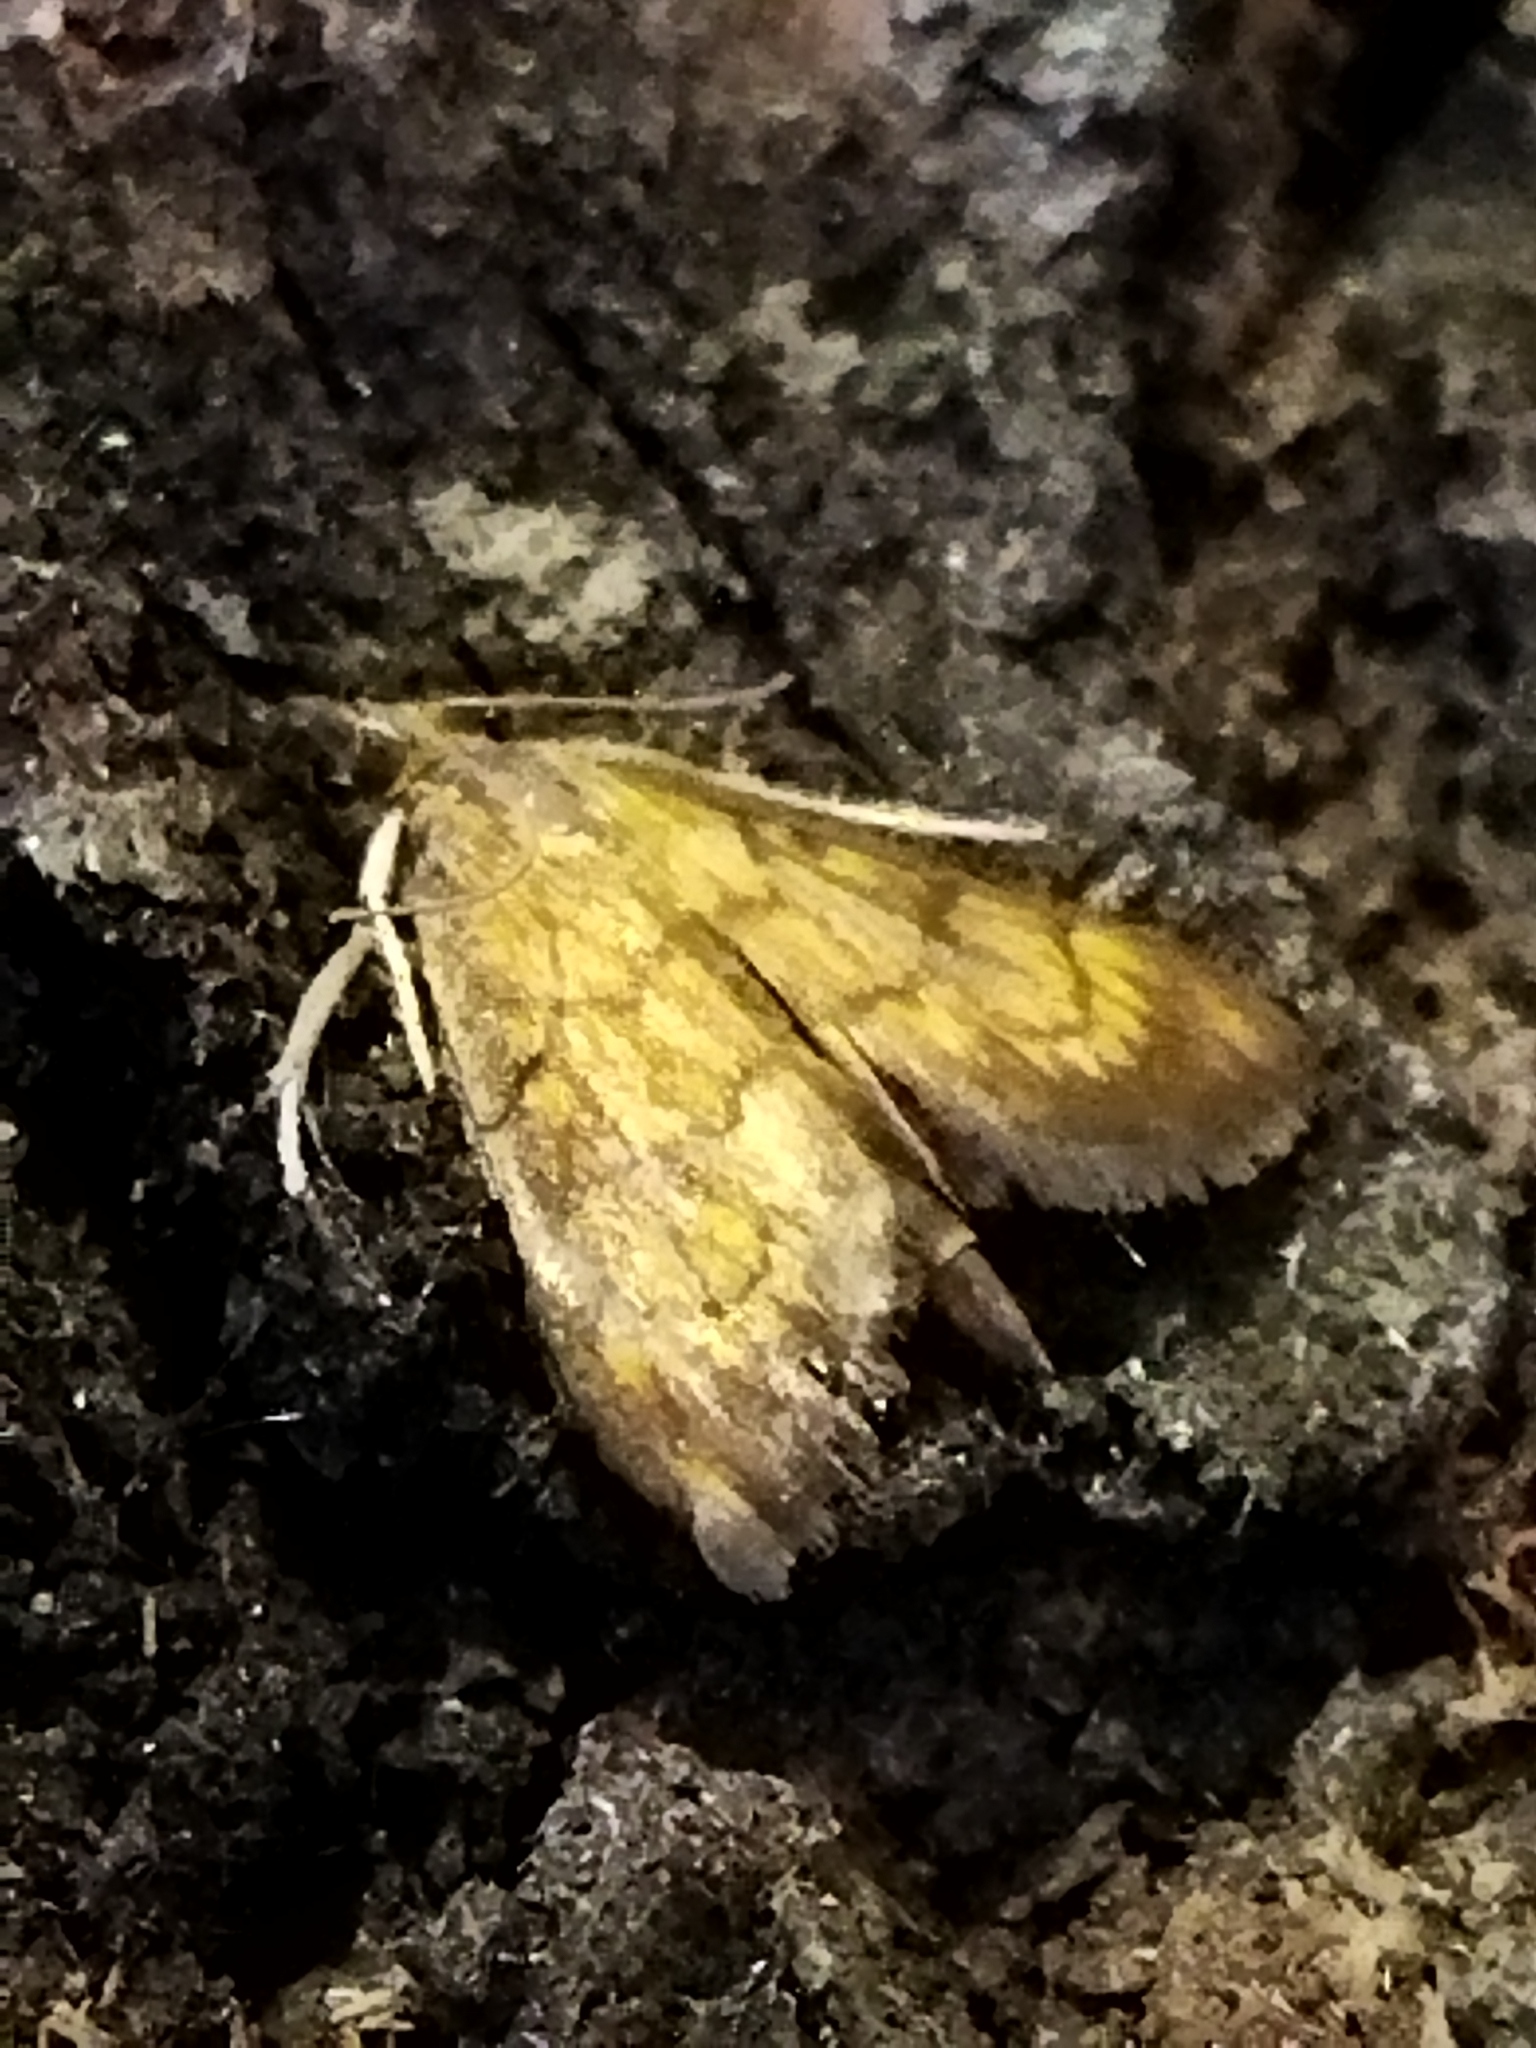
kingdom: Animalia
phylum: Arthropoda
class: Insecta
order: Lepidoptera
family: Crambidae
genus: Ecpyrrhorrhoe
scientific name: Ecpyrrhorrhoe rubiginalis
